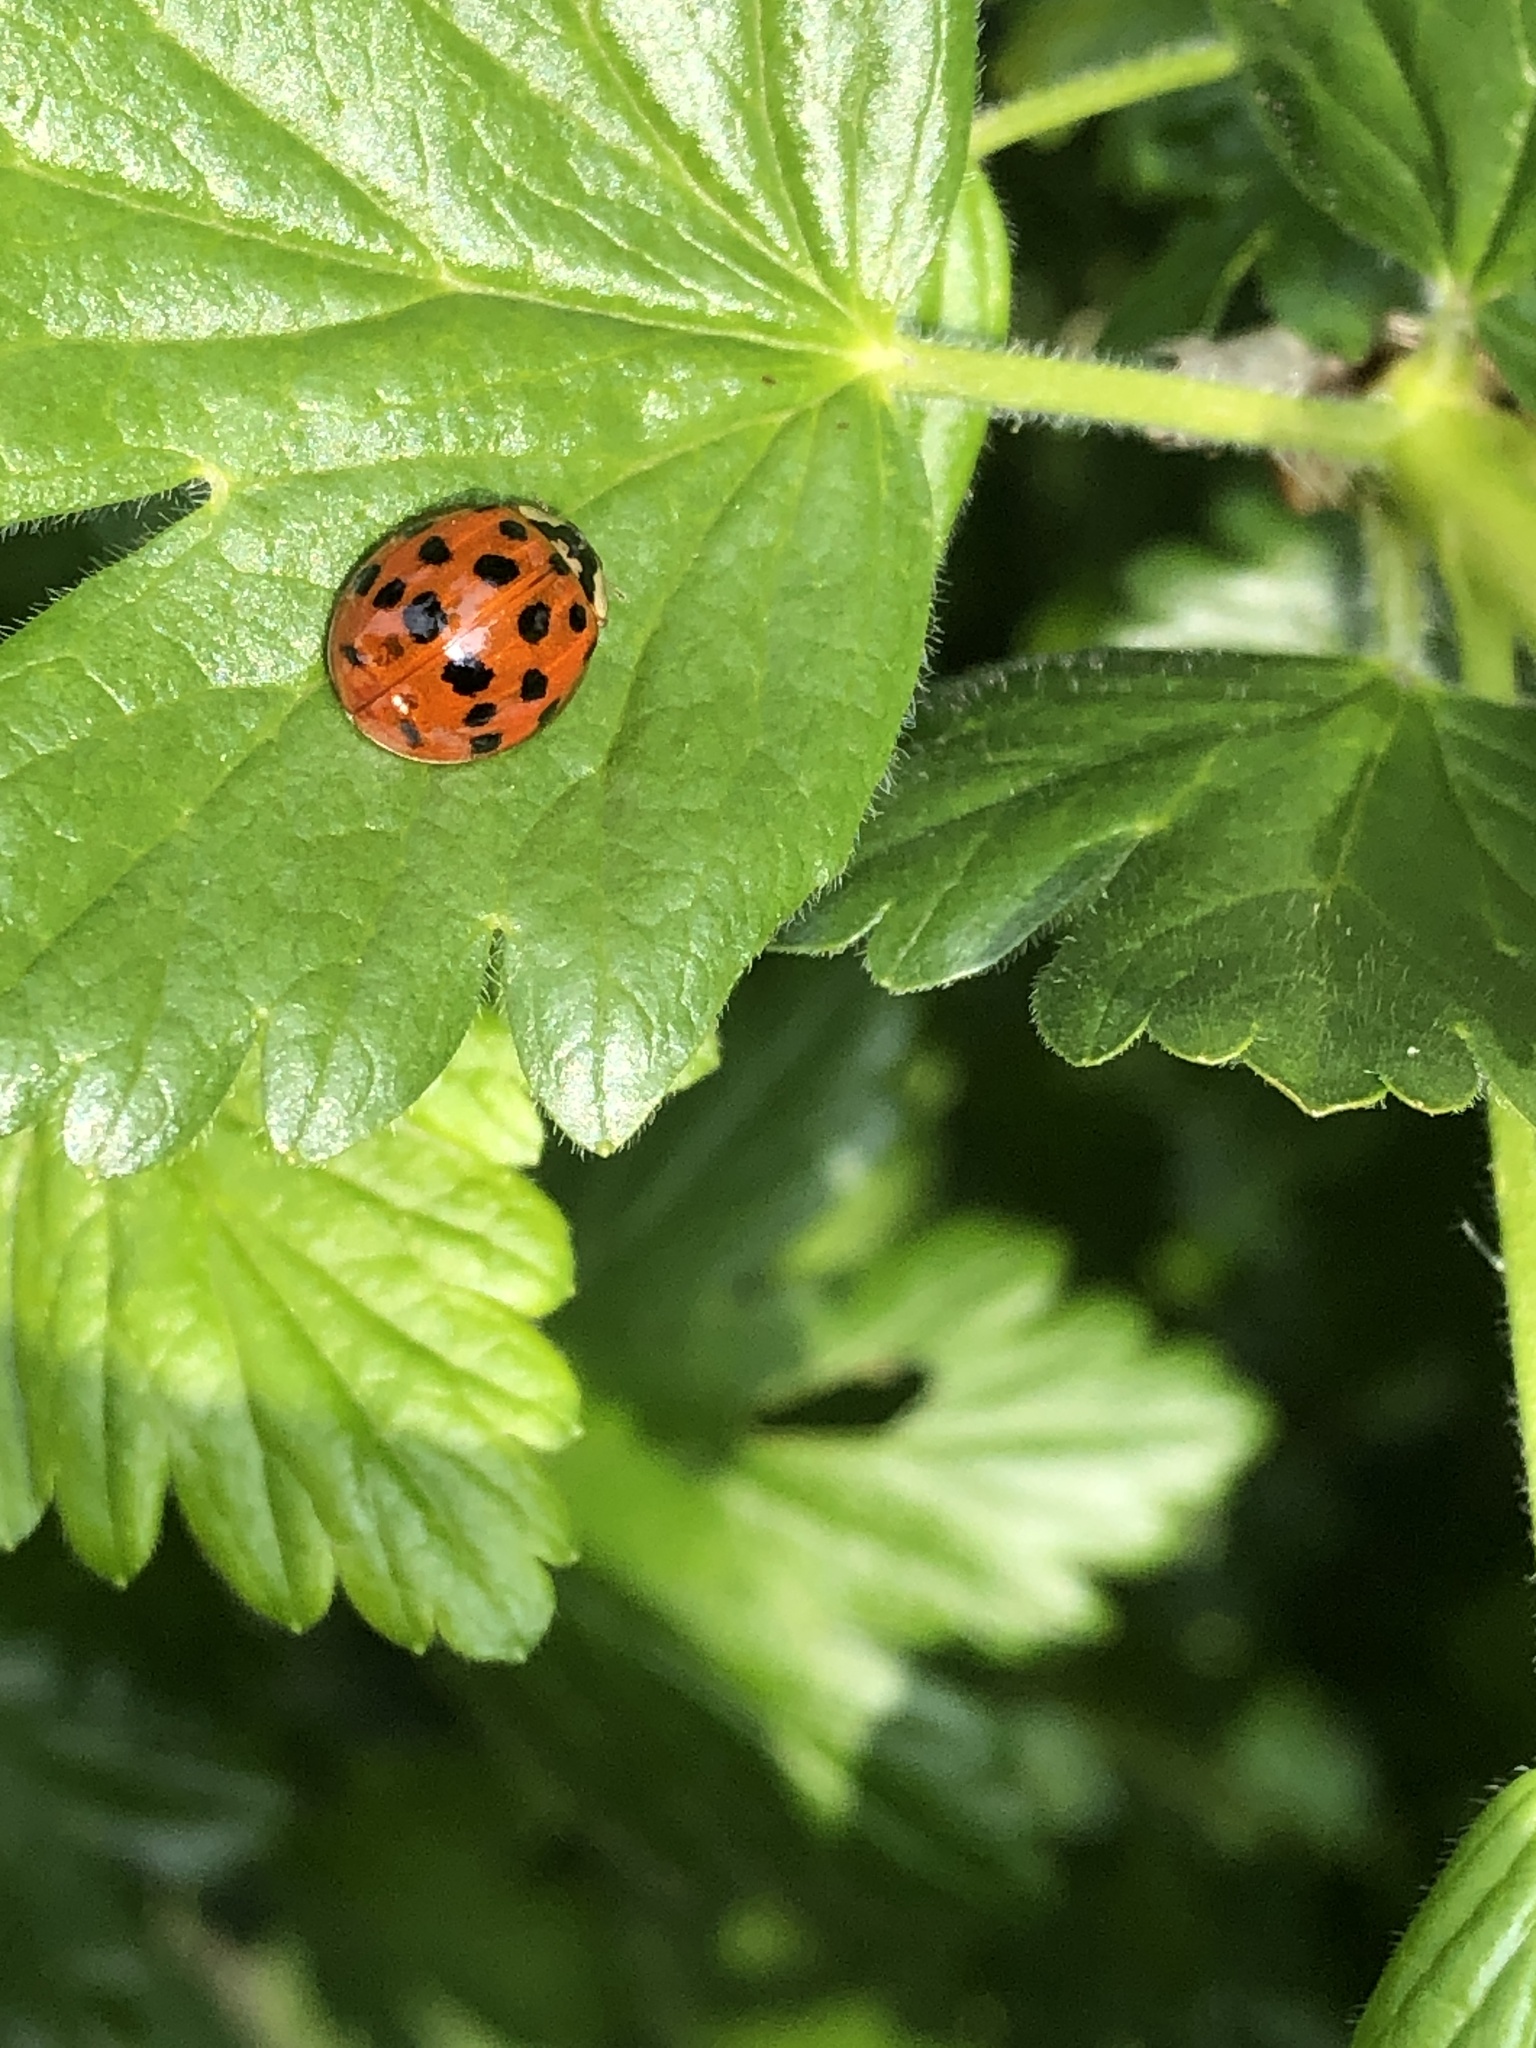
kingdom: Animalia
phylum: Arthropoda
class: Insecta
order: Coleoptera
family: Coccinellidae
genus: Harmonia
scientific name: Harmonia axyridis
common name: Harlequin ladybird
